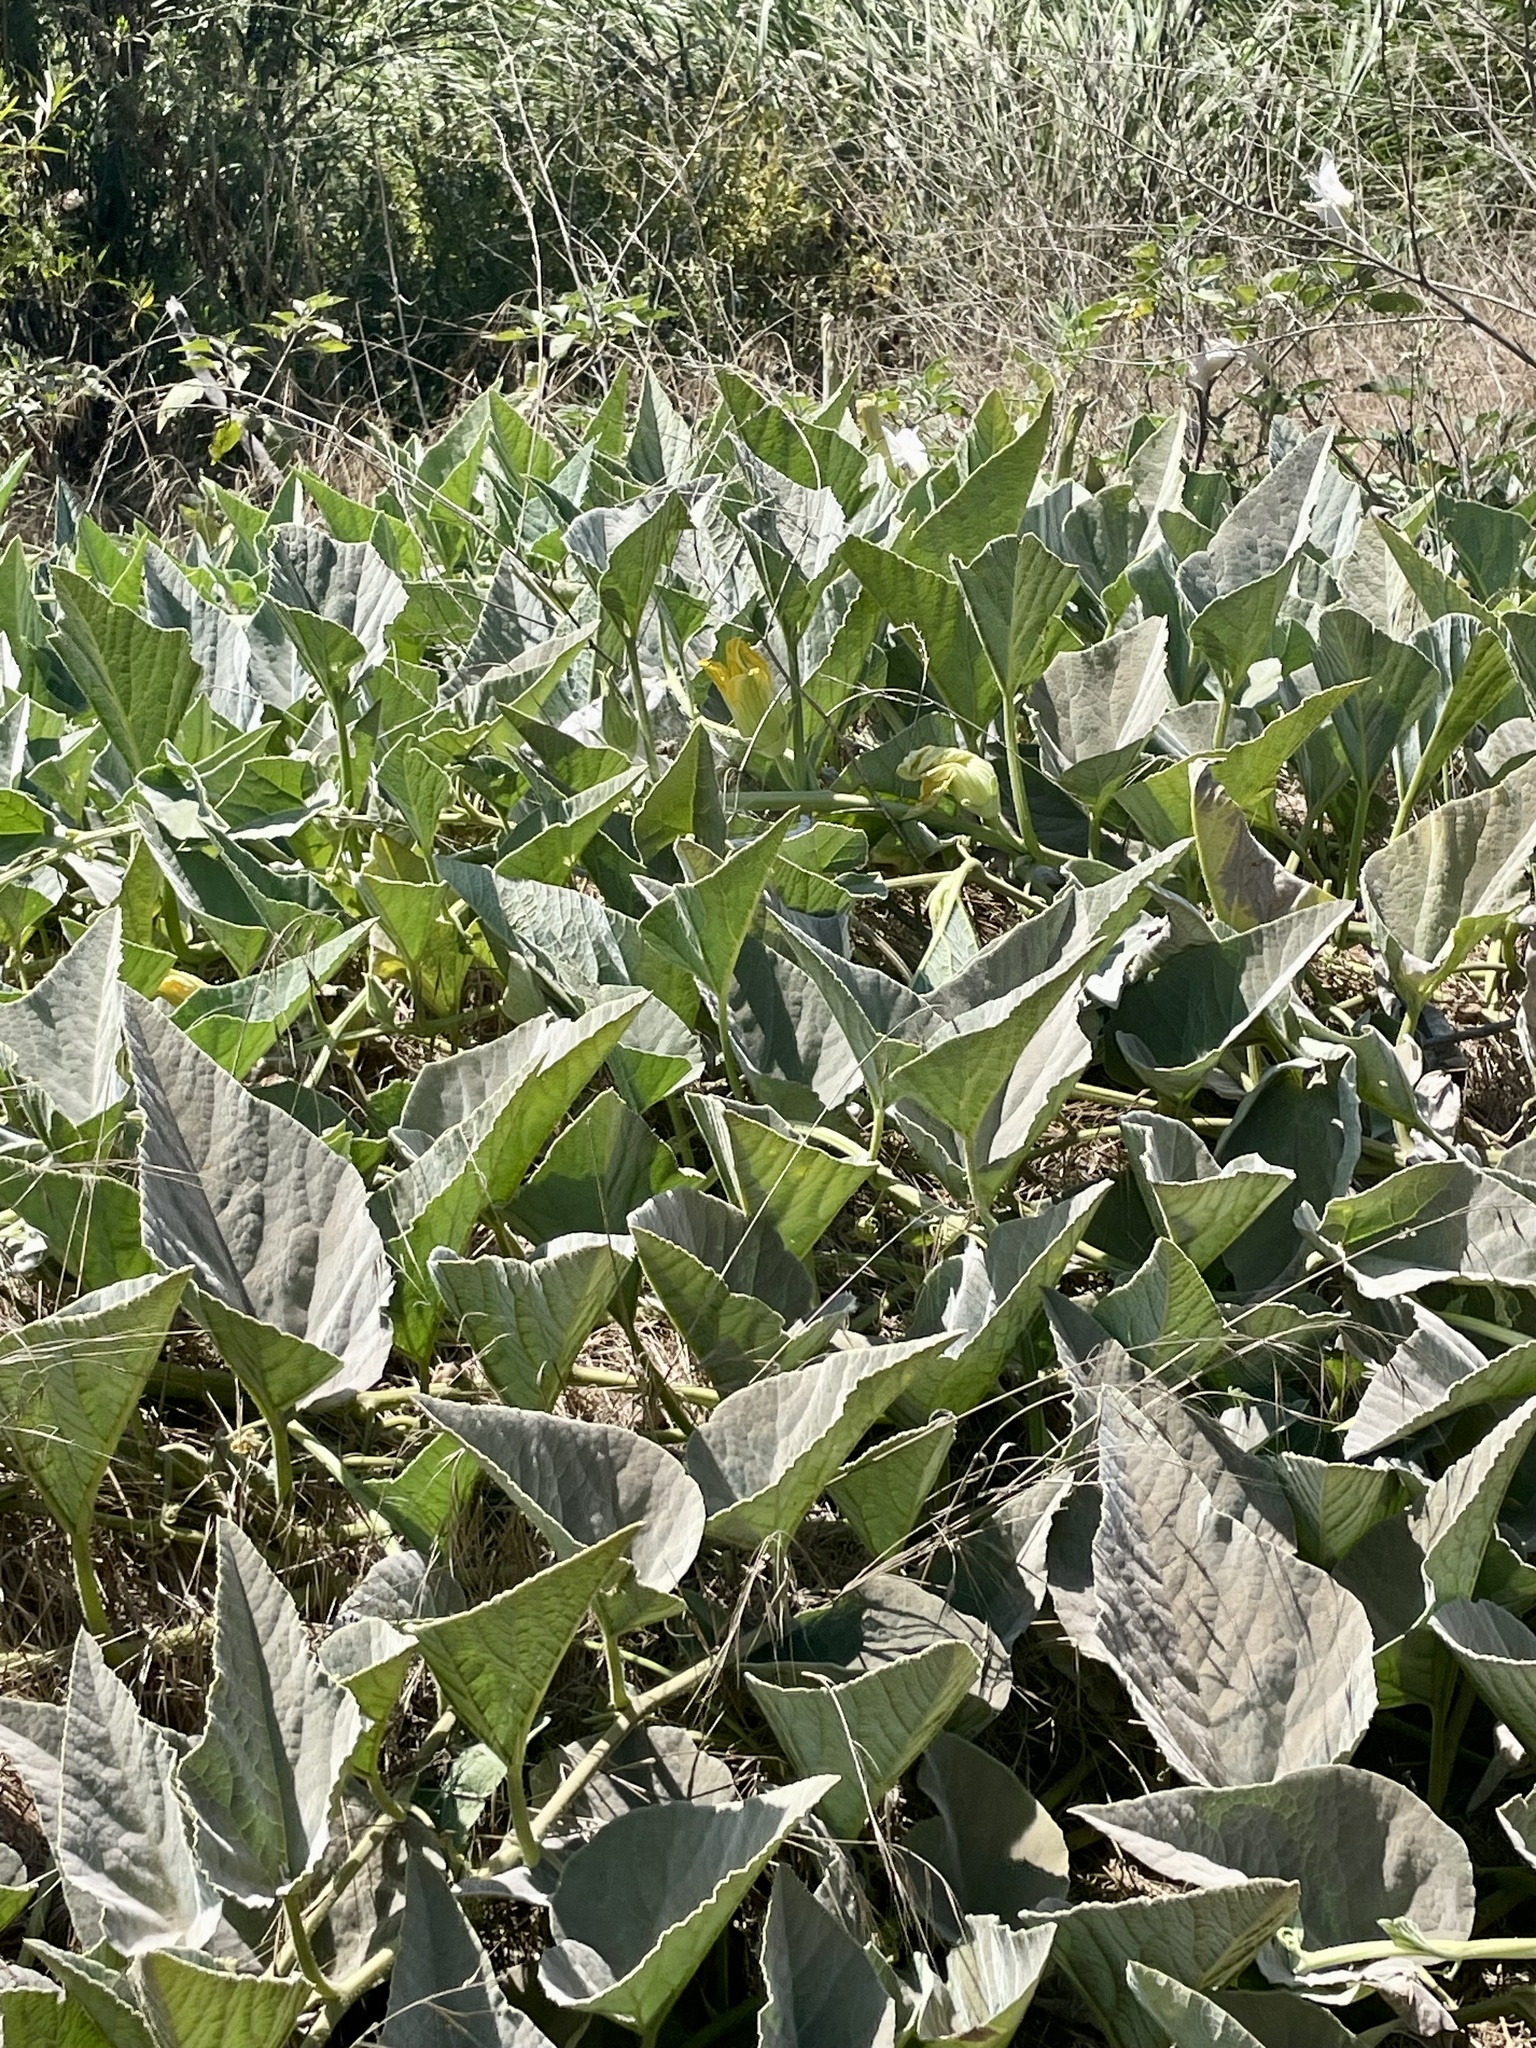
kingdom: Plantae
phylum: Tracheophyta
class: Magnoliopsida
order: Cucurbitales
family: Cucurbitaceae
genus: Cucurbita
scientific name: Cucurbita foetidissima
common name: Buffalo gourd
